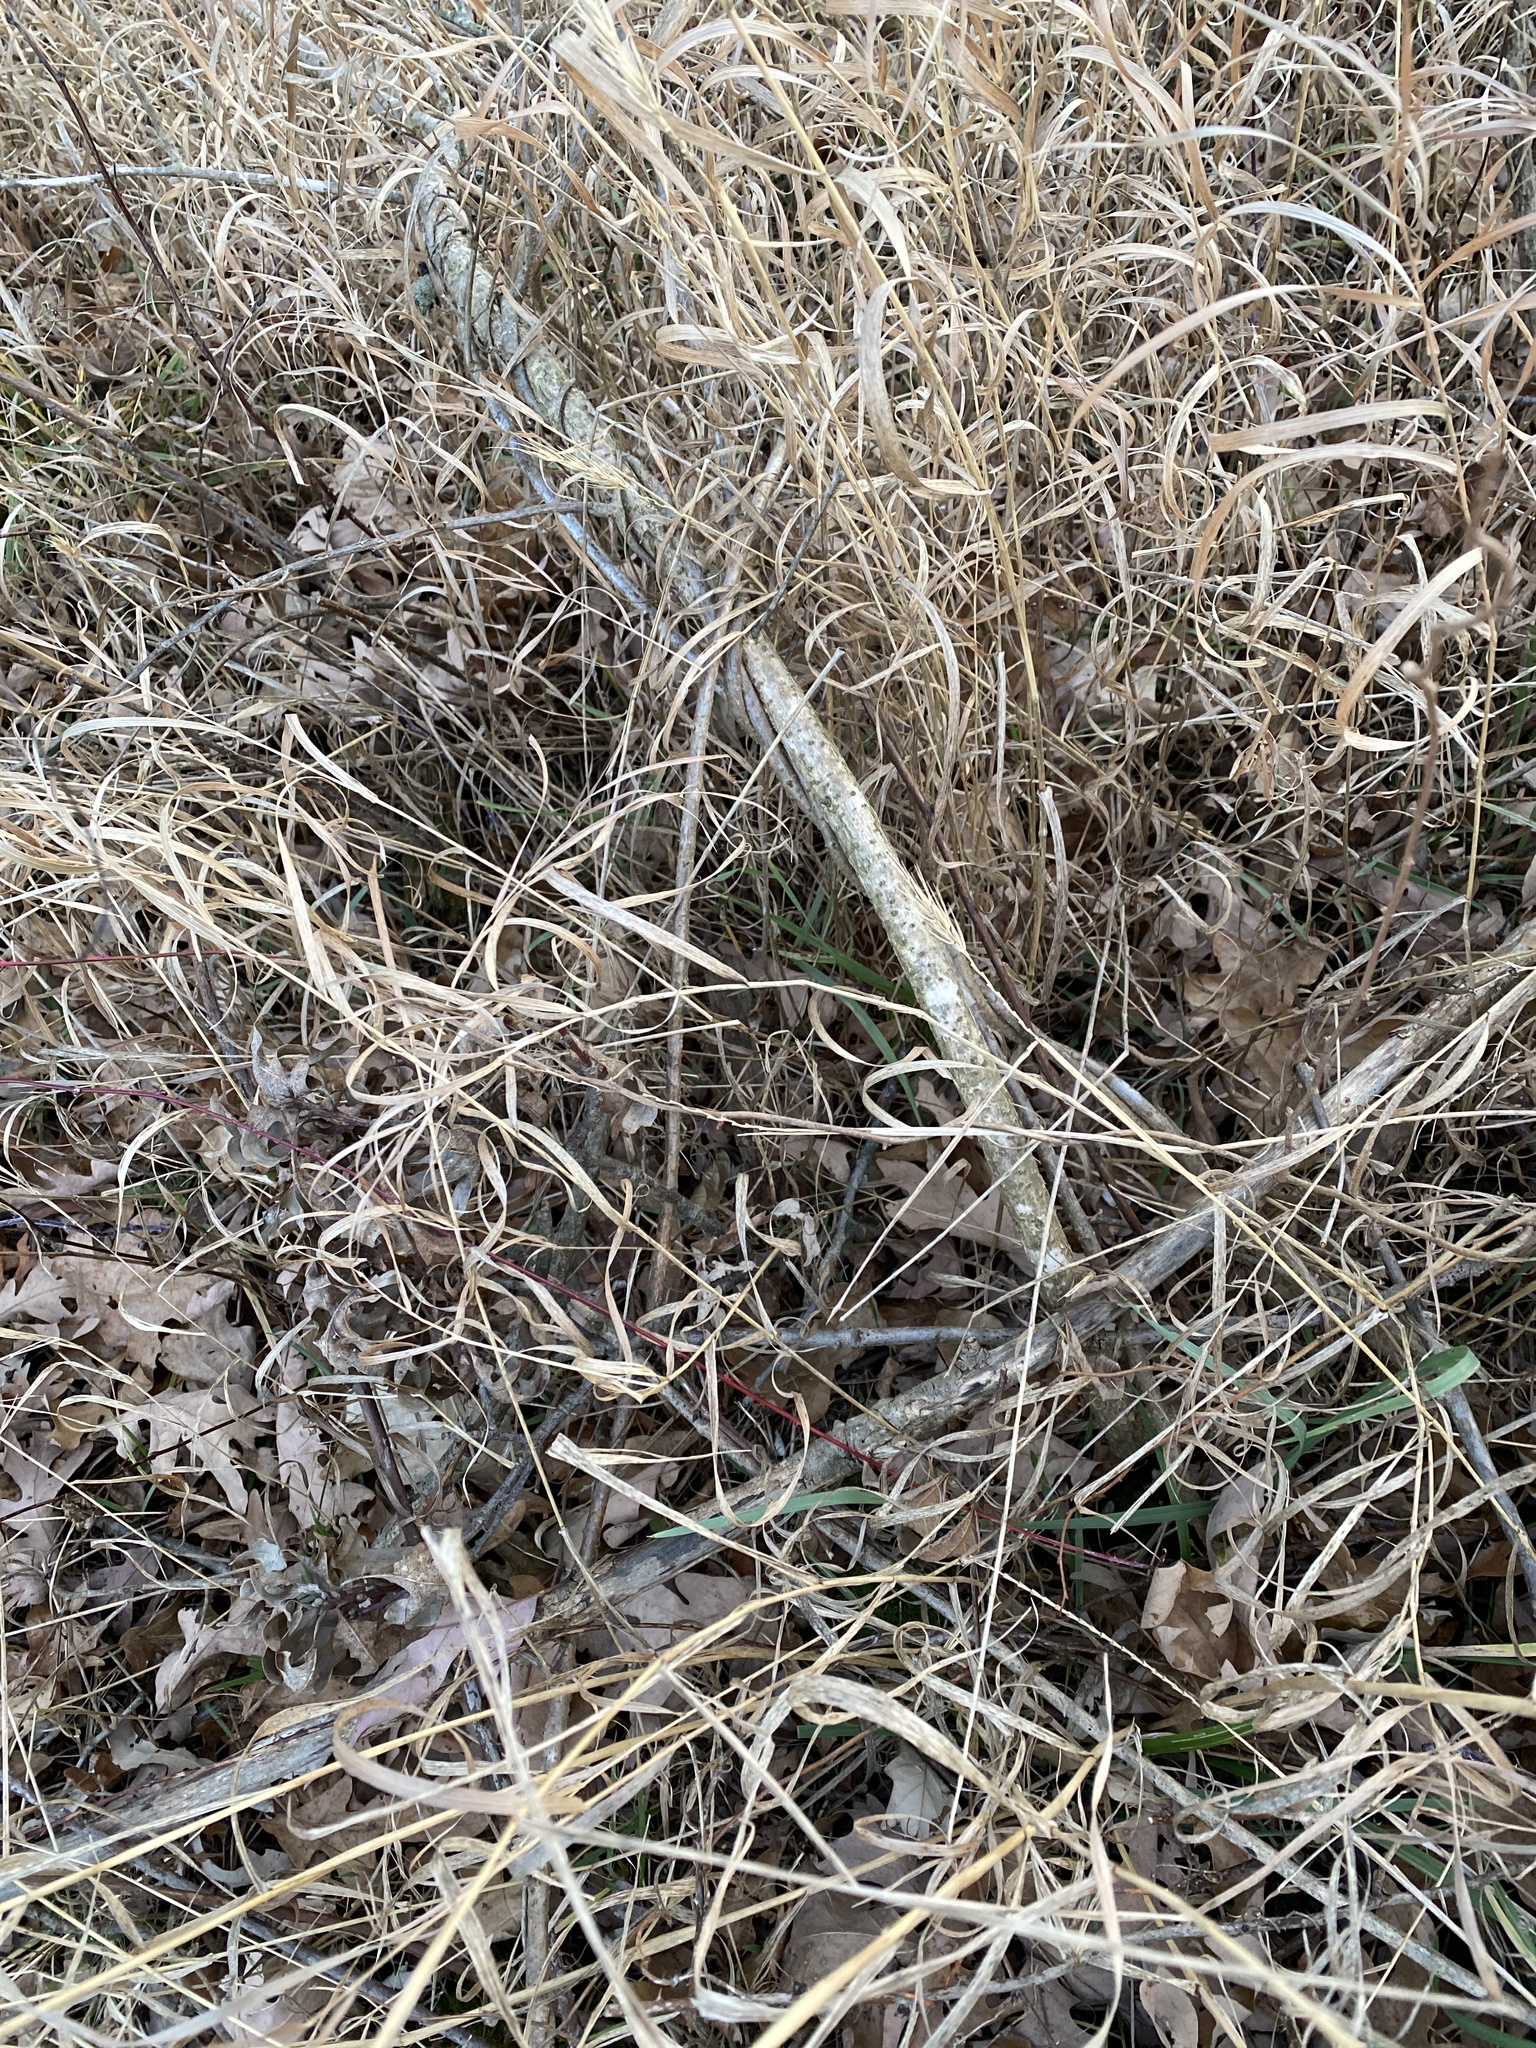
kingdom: Plantae
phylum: Tracheophyta
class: Magnoliopsida
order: Celastrales
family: Celastraceae
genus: Celastrus
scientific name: Celastrus orbiculatus
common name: Oriental bittersweet
